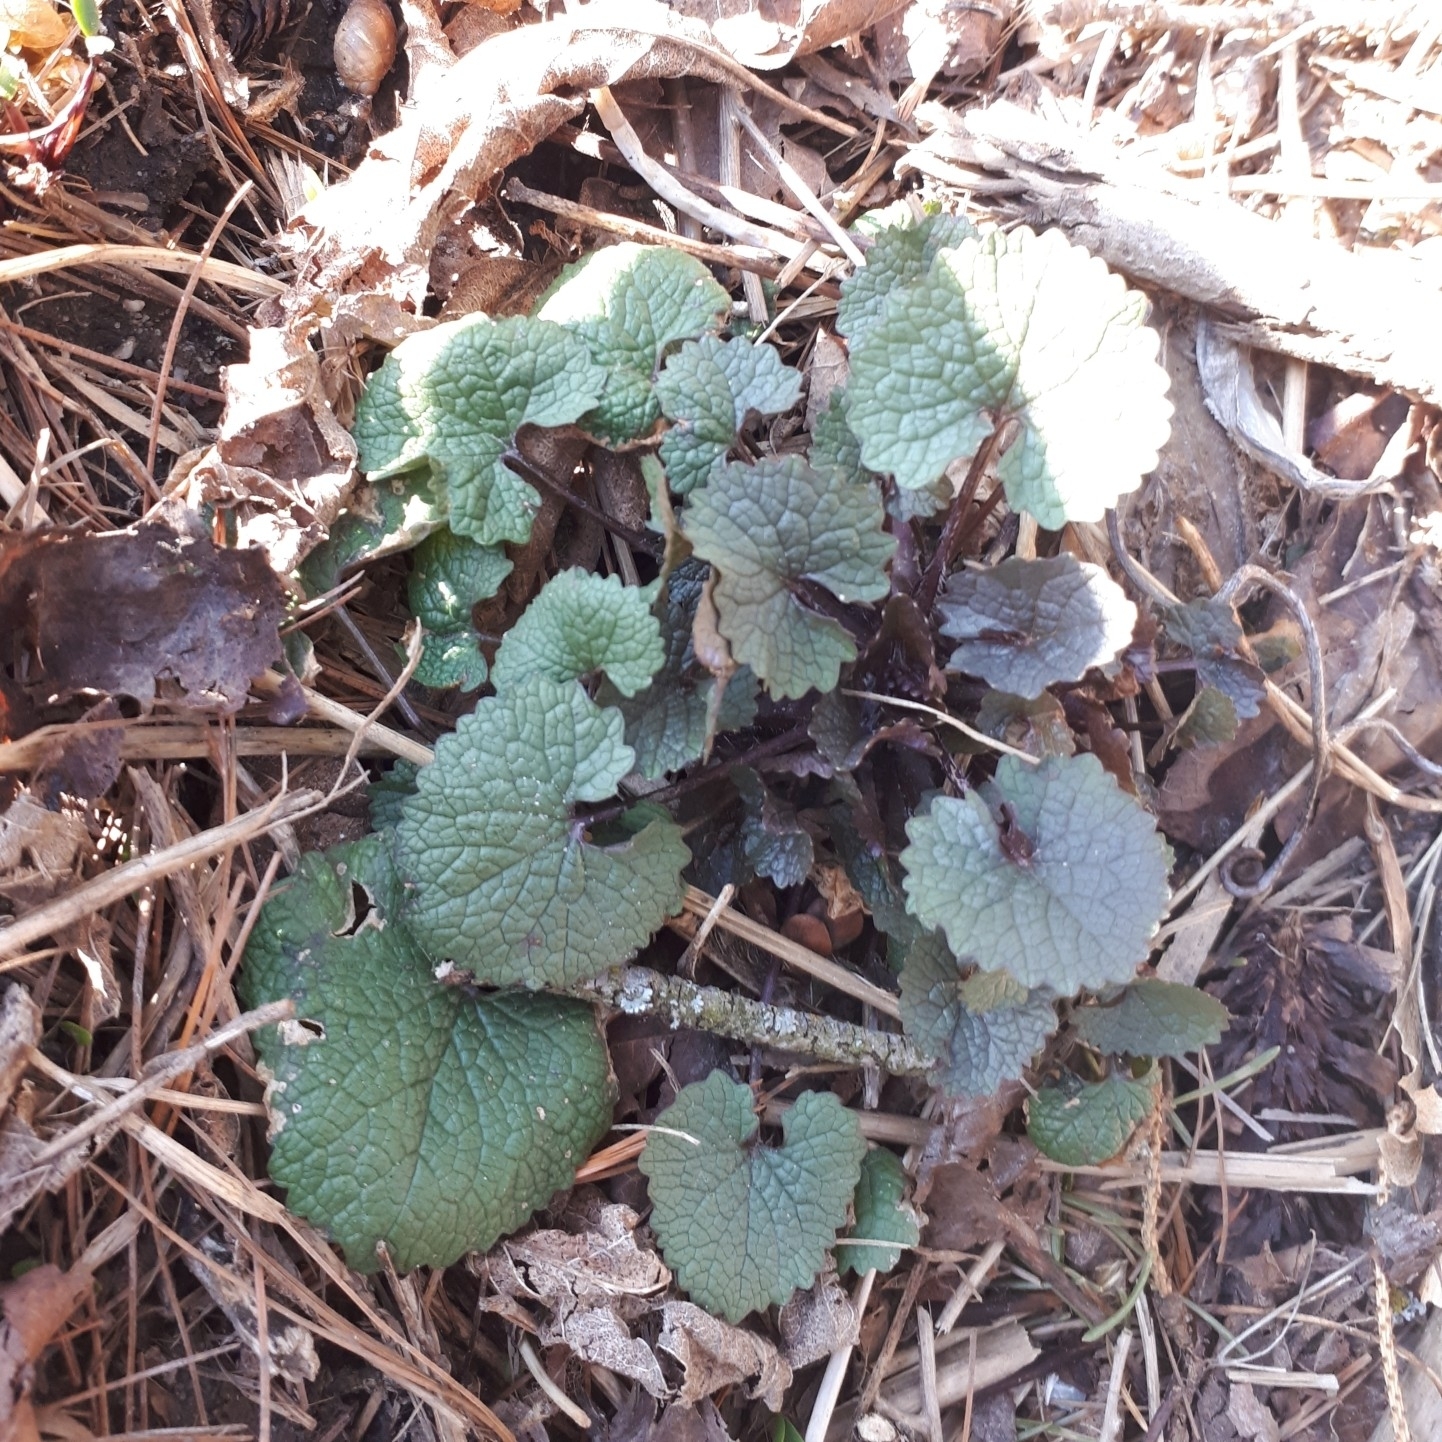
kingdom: Plantae
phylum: Tracheophyta
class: Magnoliopsida
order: Brassicales
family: Brassicaceae
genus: Alliaria
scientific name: Alliaria petiolata
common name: Garlic mustard
